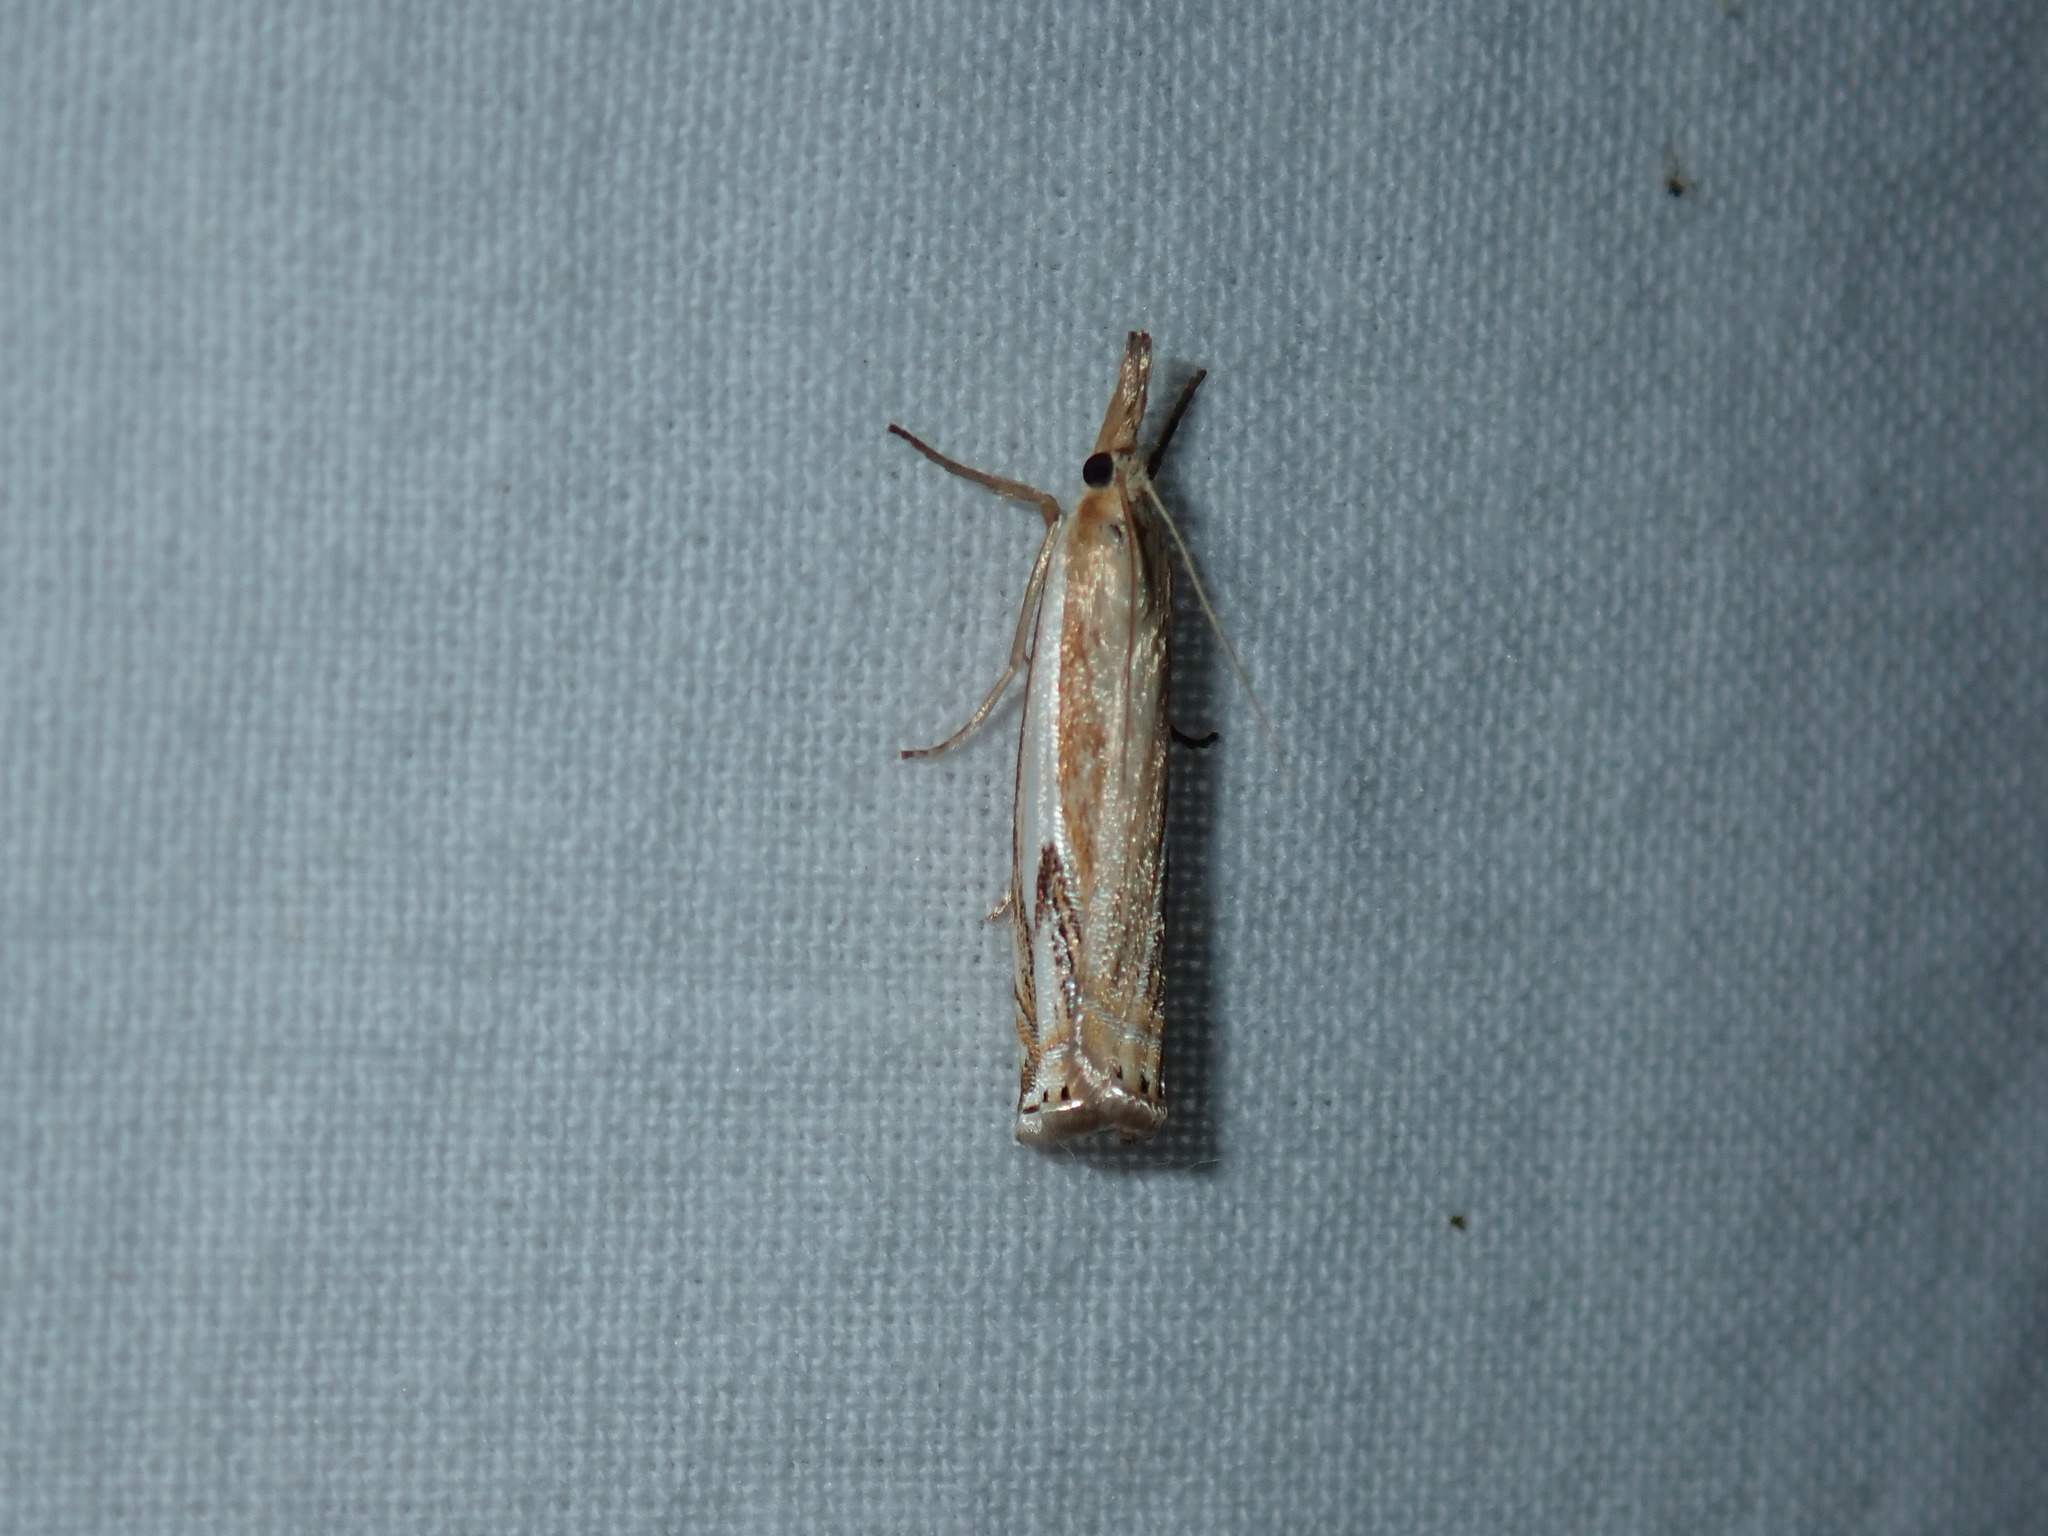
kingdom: Animalia
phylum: Arthropoda
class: Insecta
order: Lepidoptera
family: Crambidae
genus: Crambus
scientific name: Crambus agitatellus
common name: Double-banded grass-veneer
